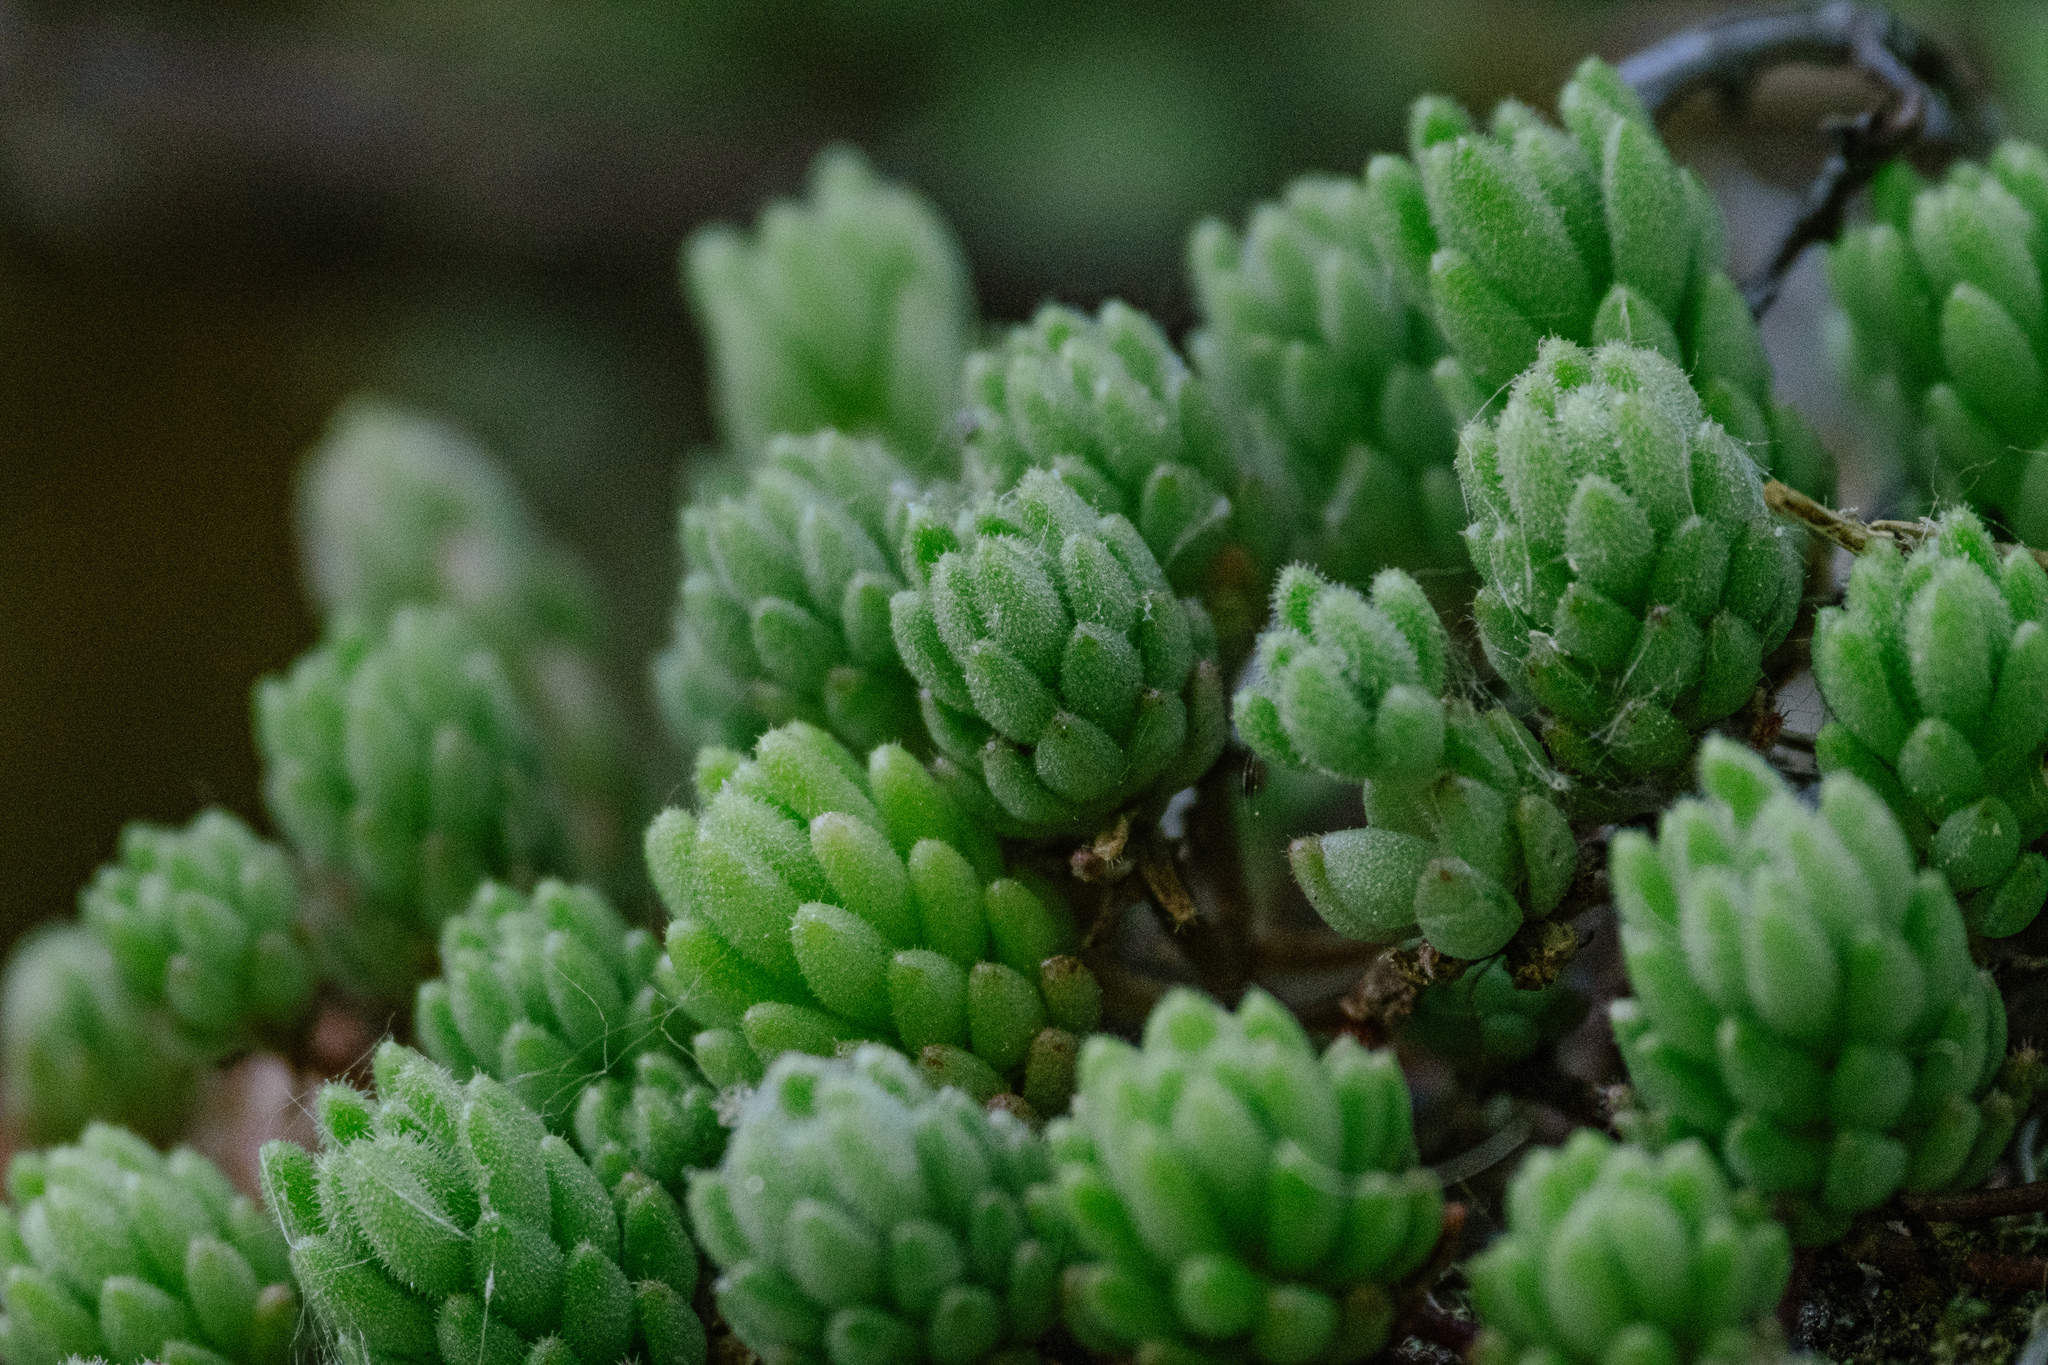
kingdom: Plantae
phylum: Tracheophyta
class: Magnoliopsida
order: Saxifragales
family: Crassulaceae
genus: Sedum
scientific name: Sedum hirsutum
